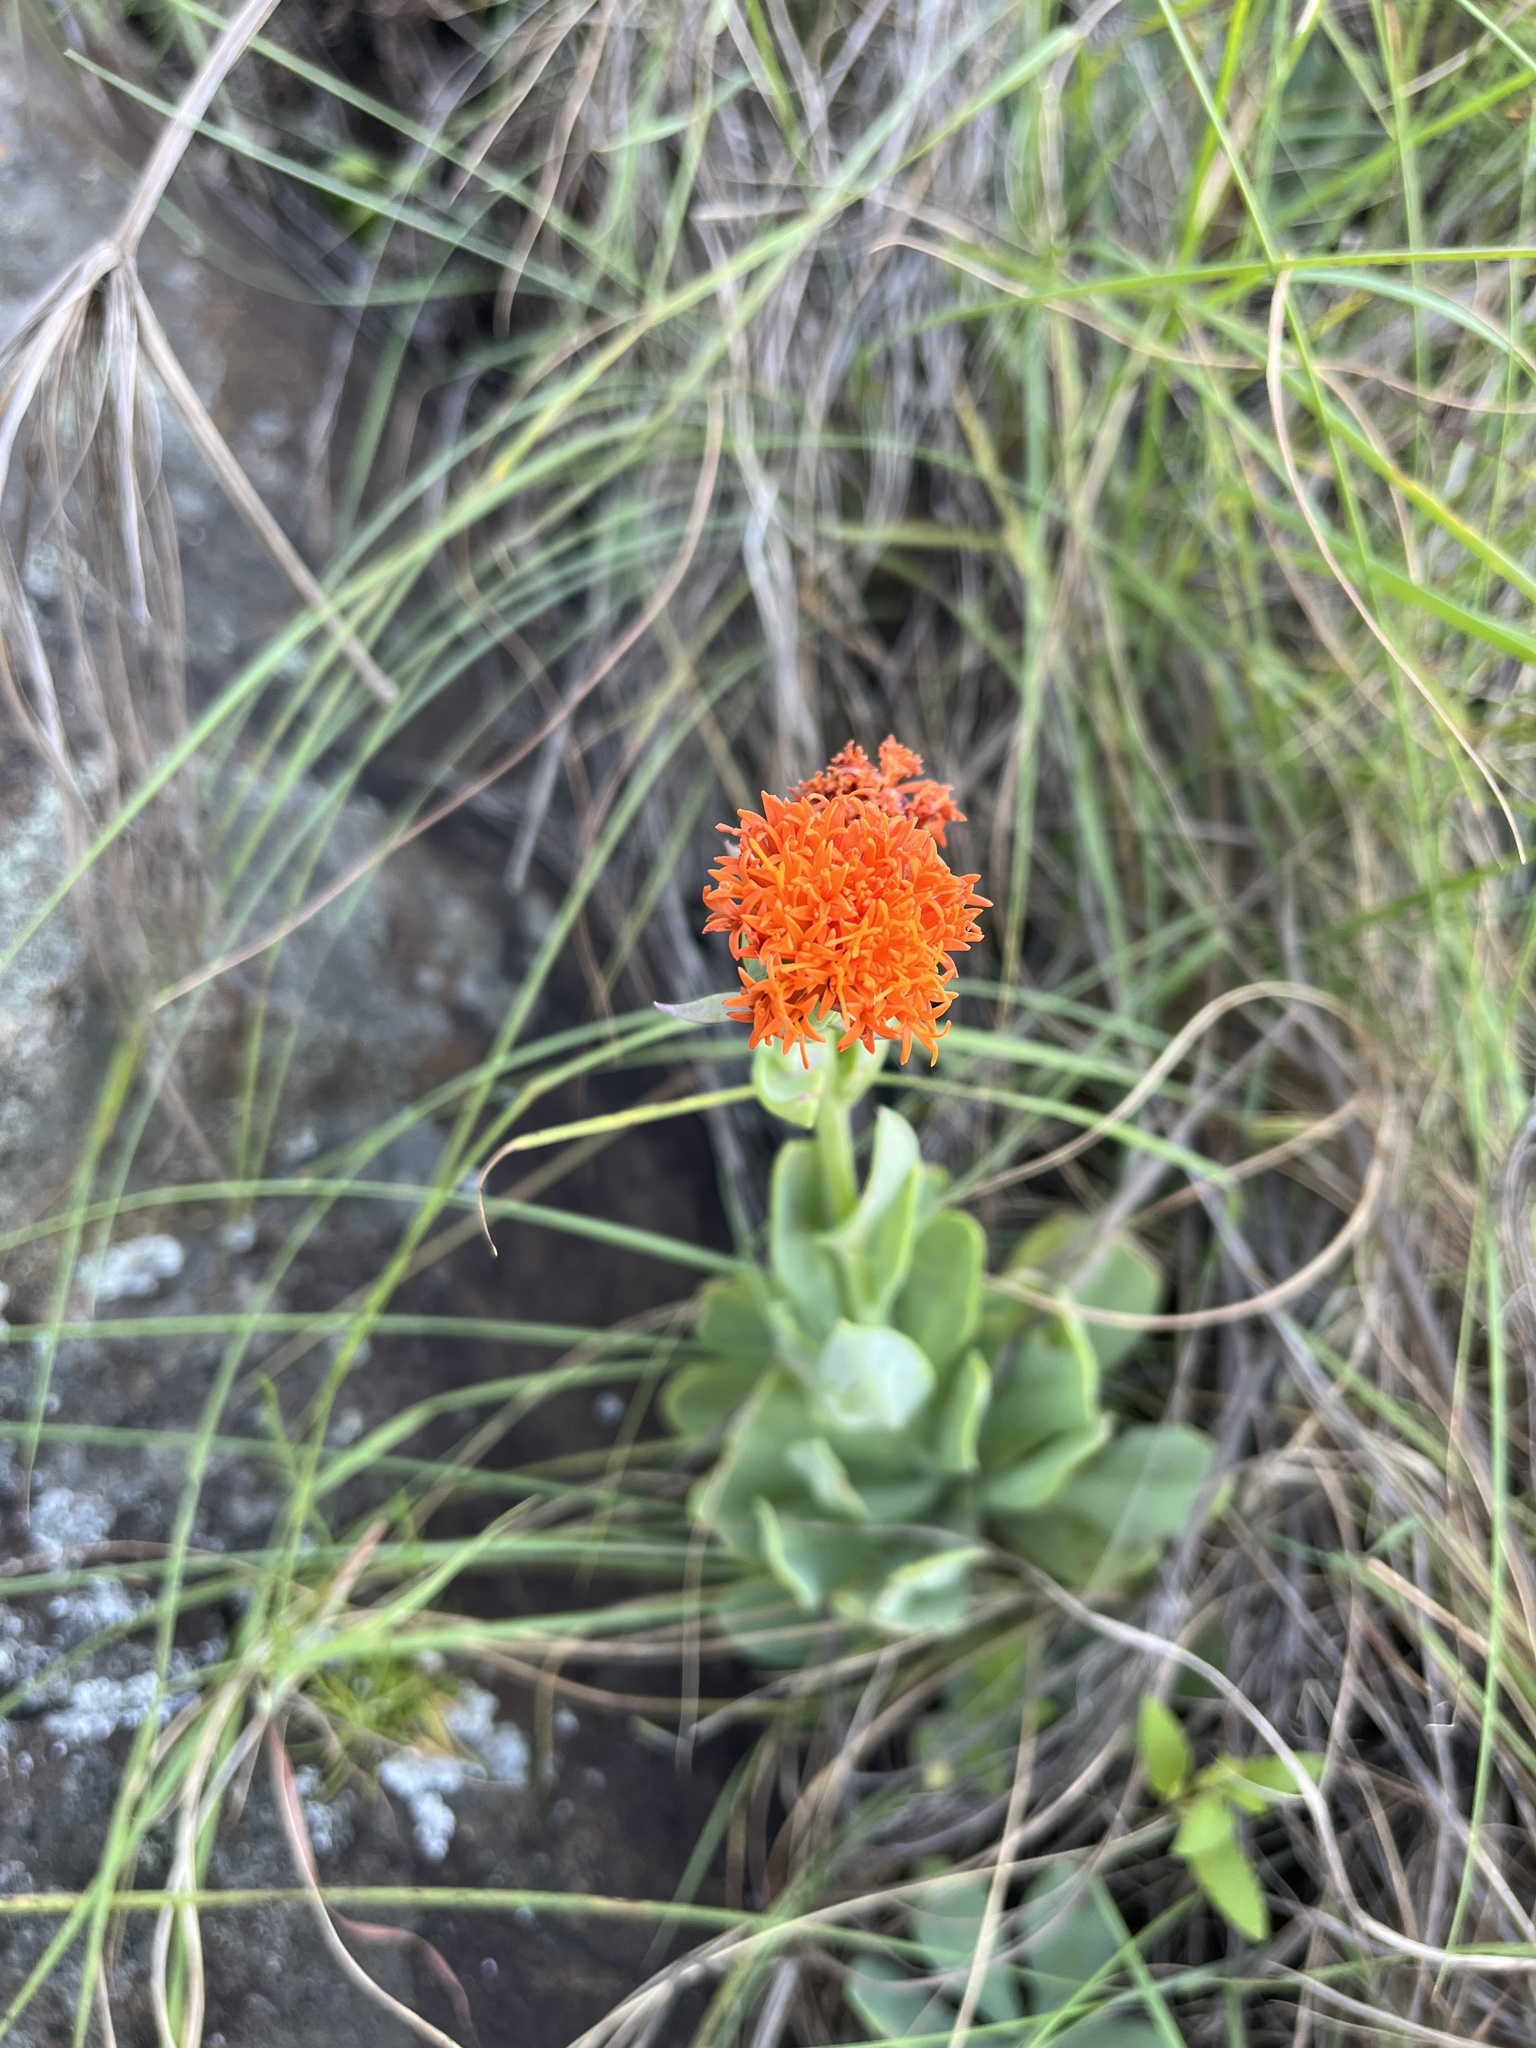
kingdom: Plantae
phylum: Tracheophyta
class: Magnoliopsida
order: Asterales
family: Asteraceae
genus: Kleinia
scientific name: Kleinia galpinii
